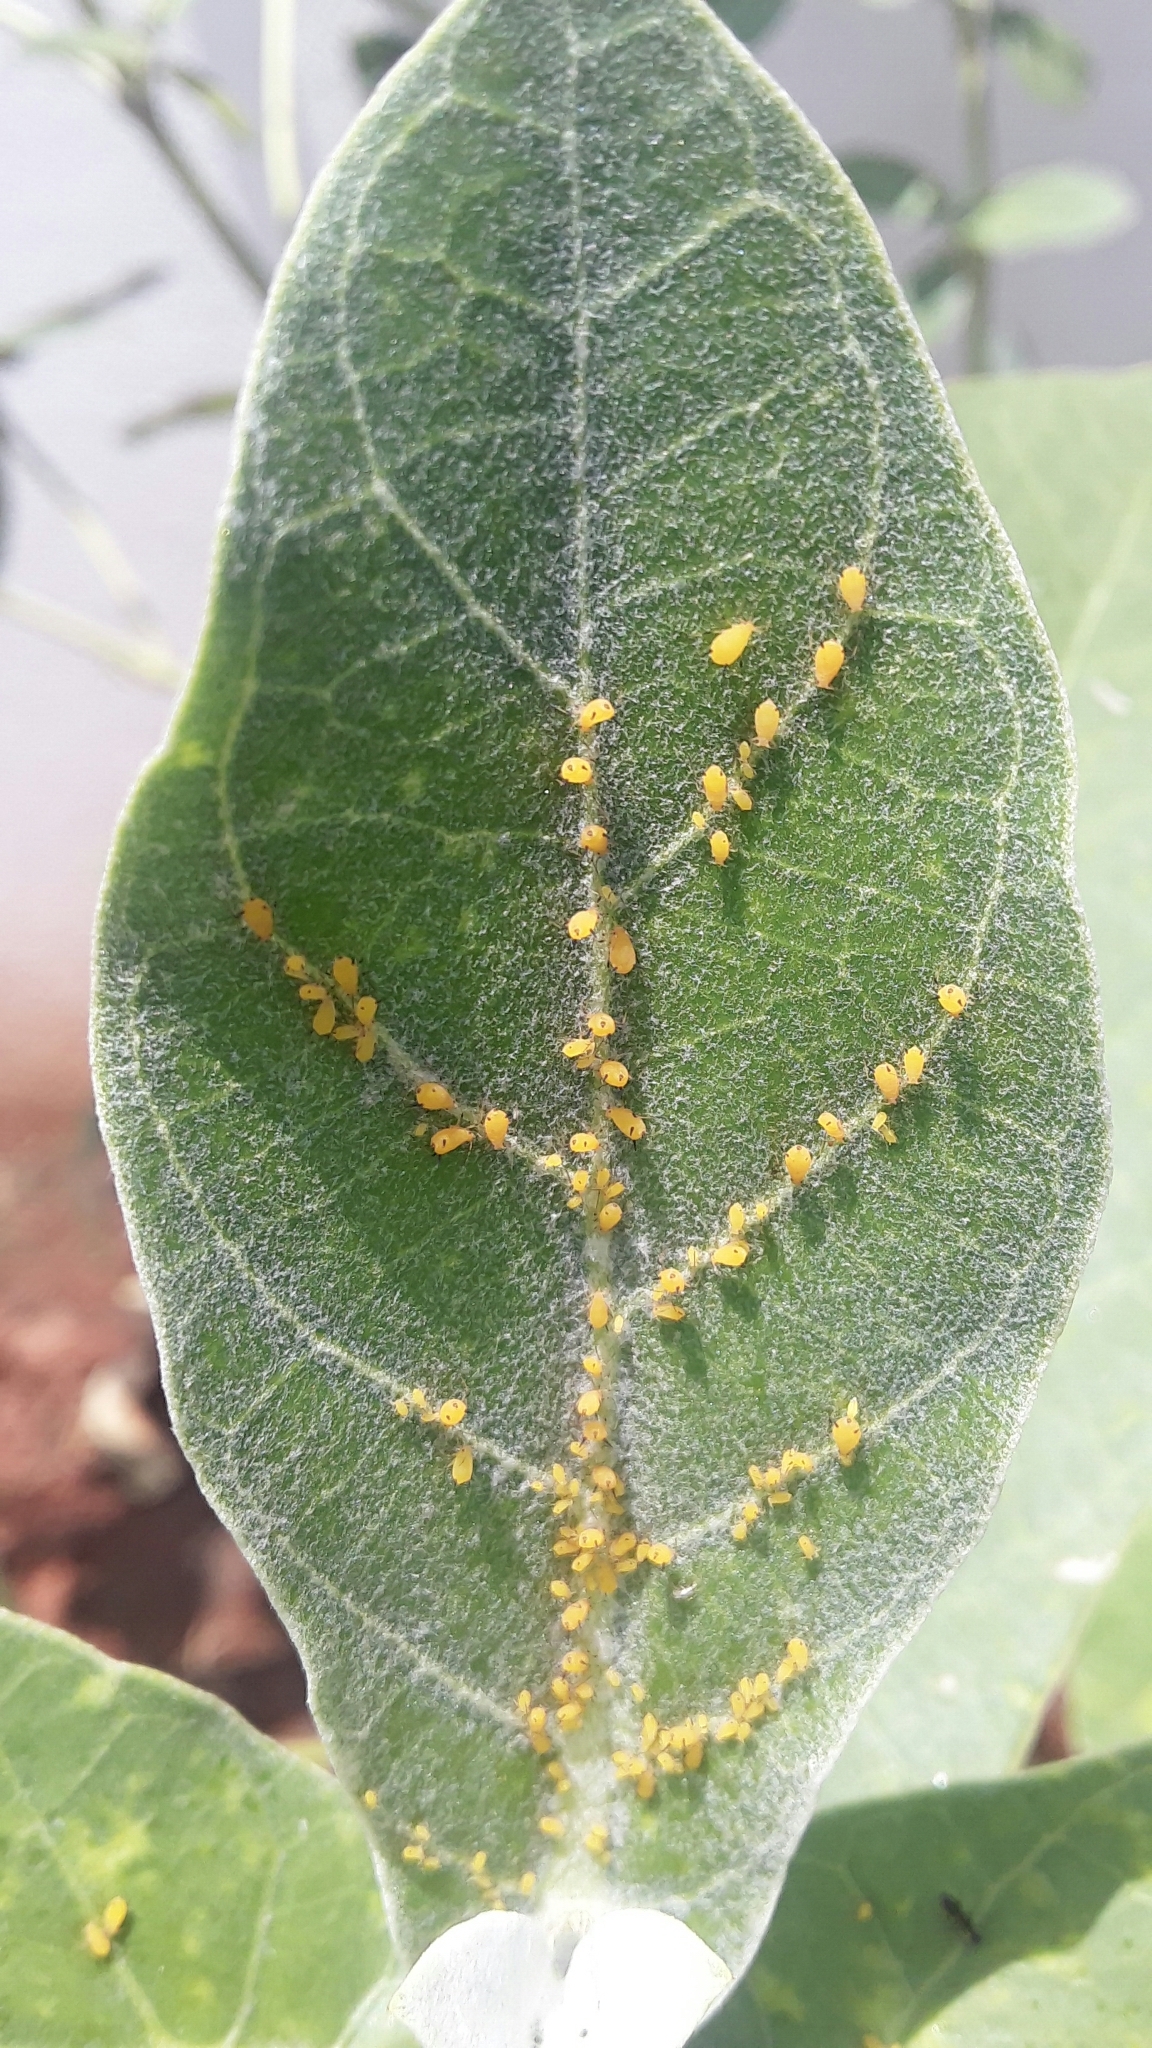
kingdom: Animalia
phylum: Arthropoda
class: Insecta
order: Hemiptera
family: Aphididae
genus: Aphis
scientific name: Aphis nerii
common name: Oleander aphid
